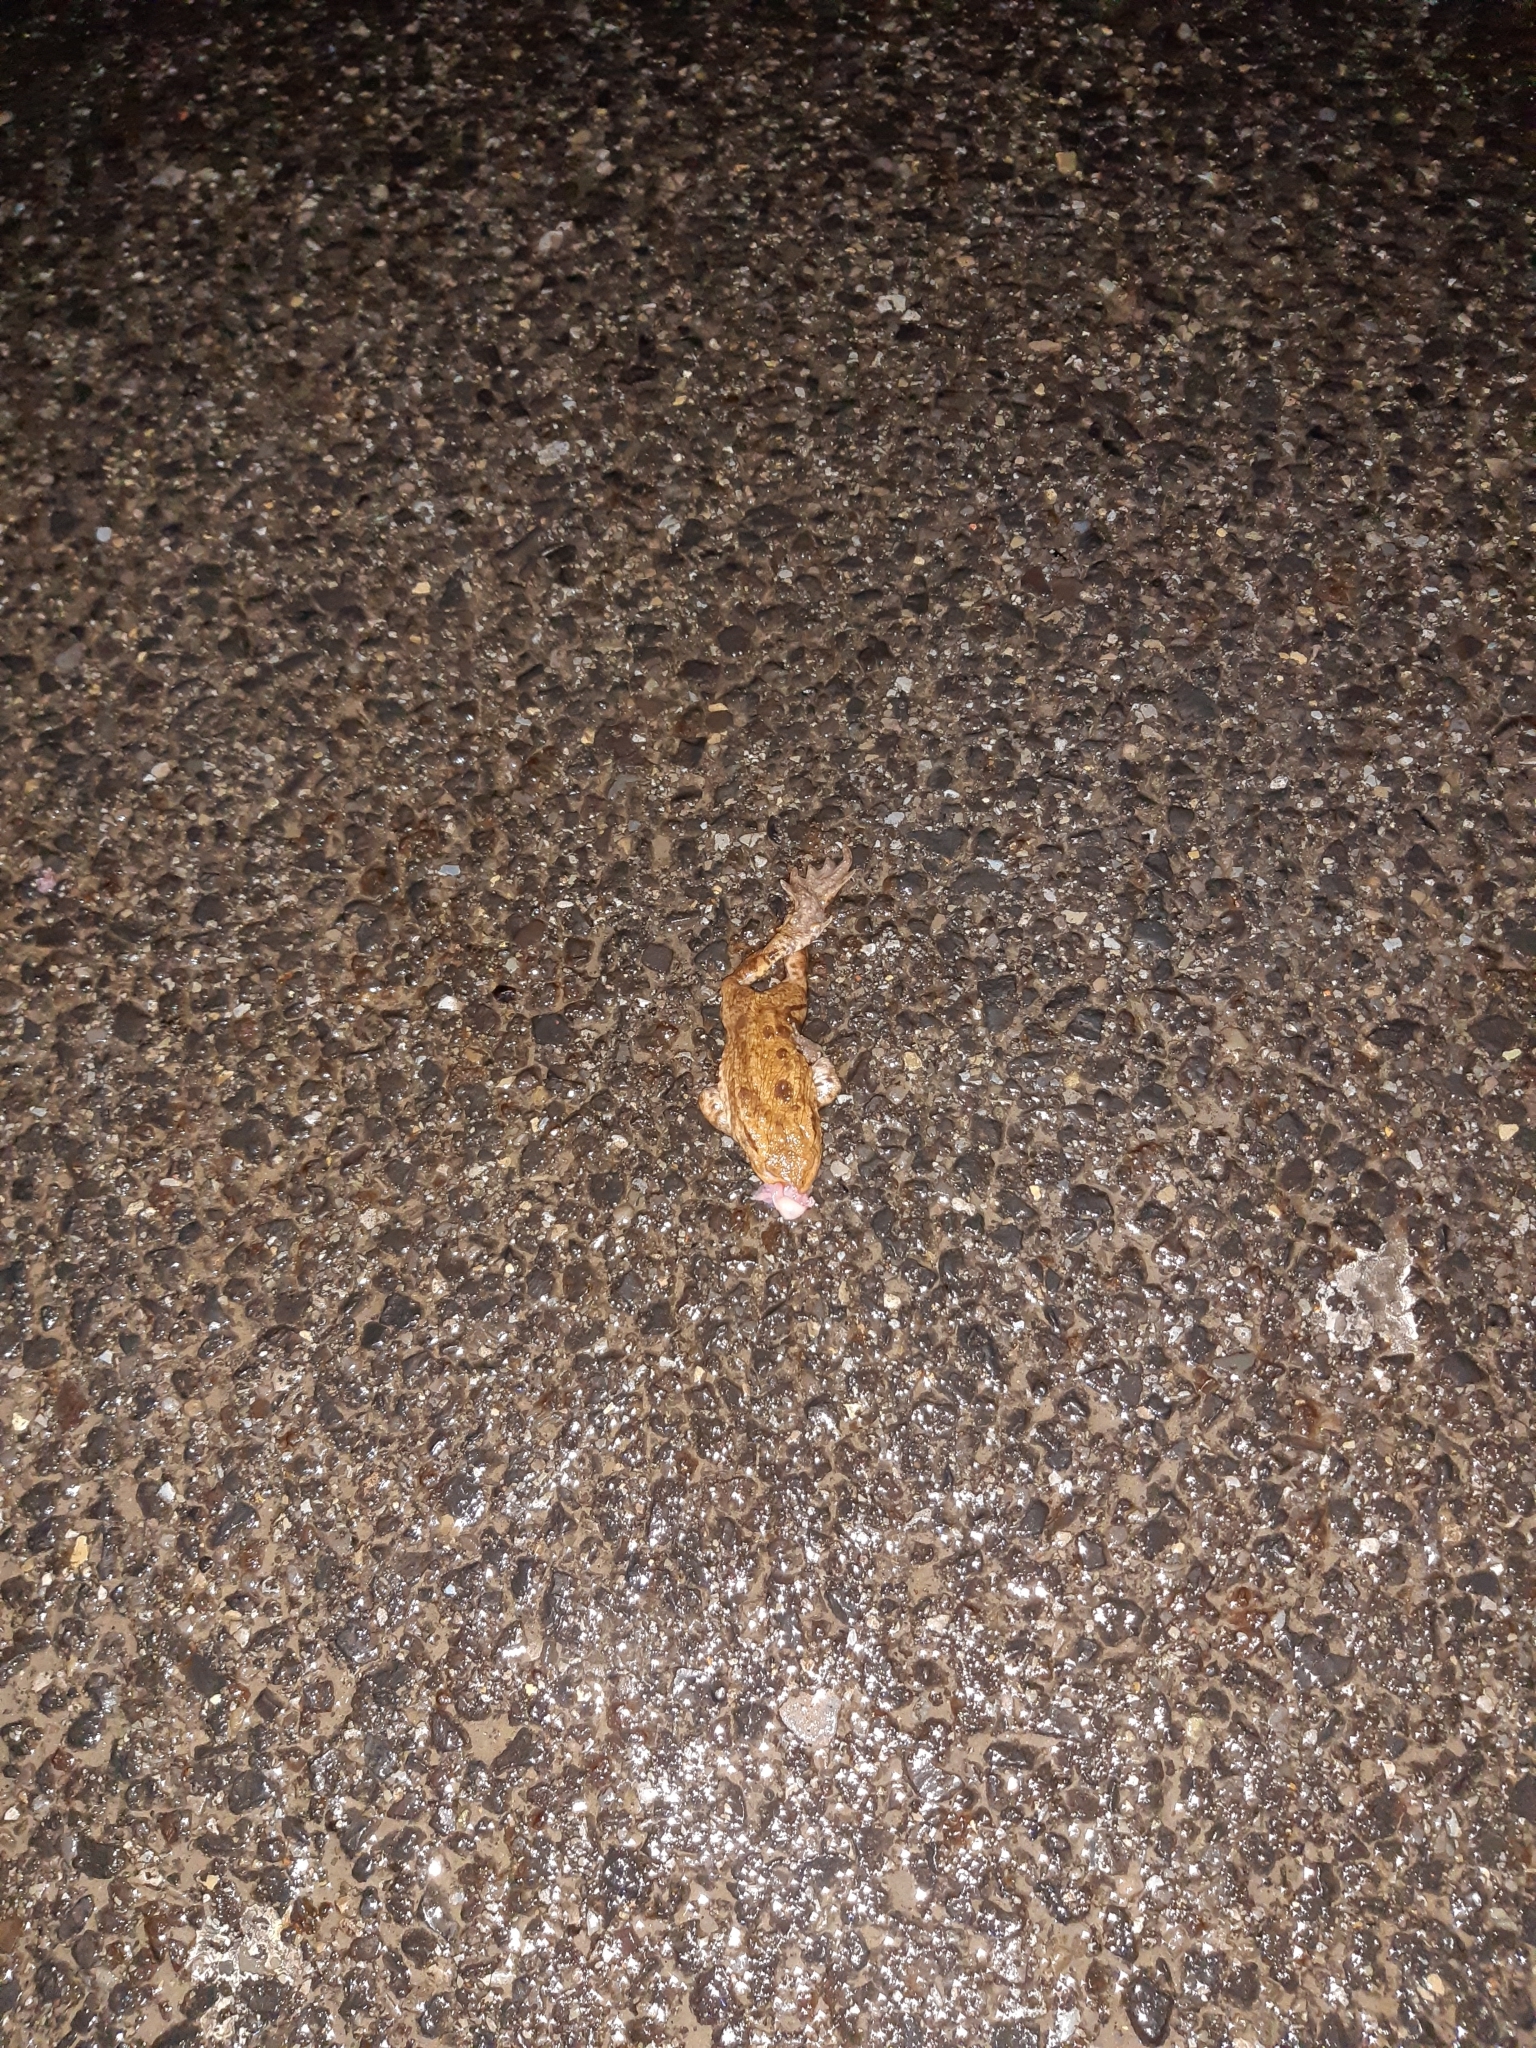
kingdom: Animalia
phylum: Chordata
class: Amphibia
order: Anura
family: Bufonidae
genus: Bufo
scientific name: Bufo bufo
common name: Common toad
